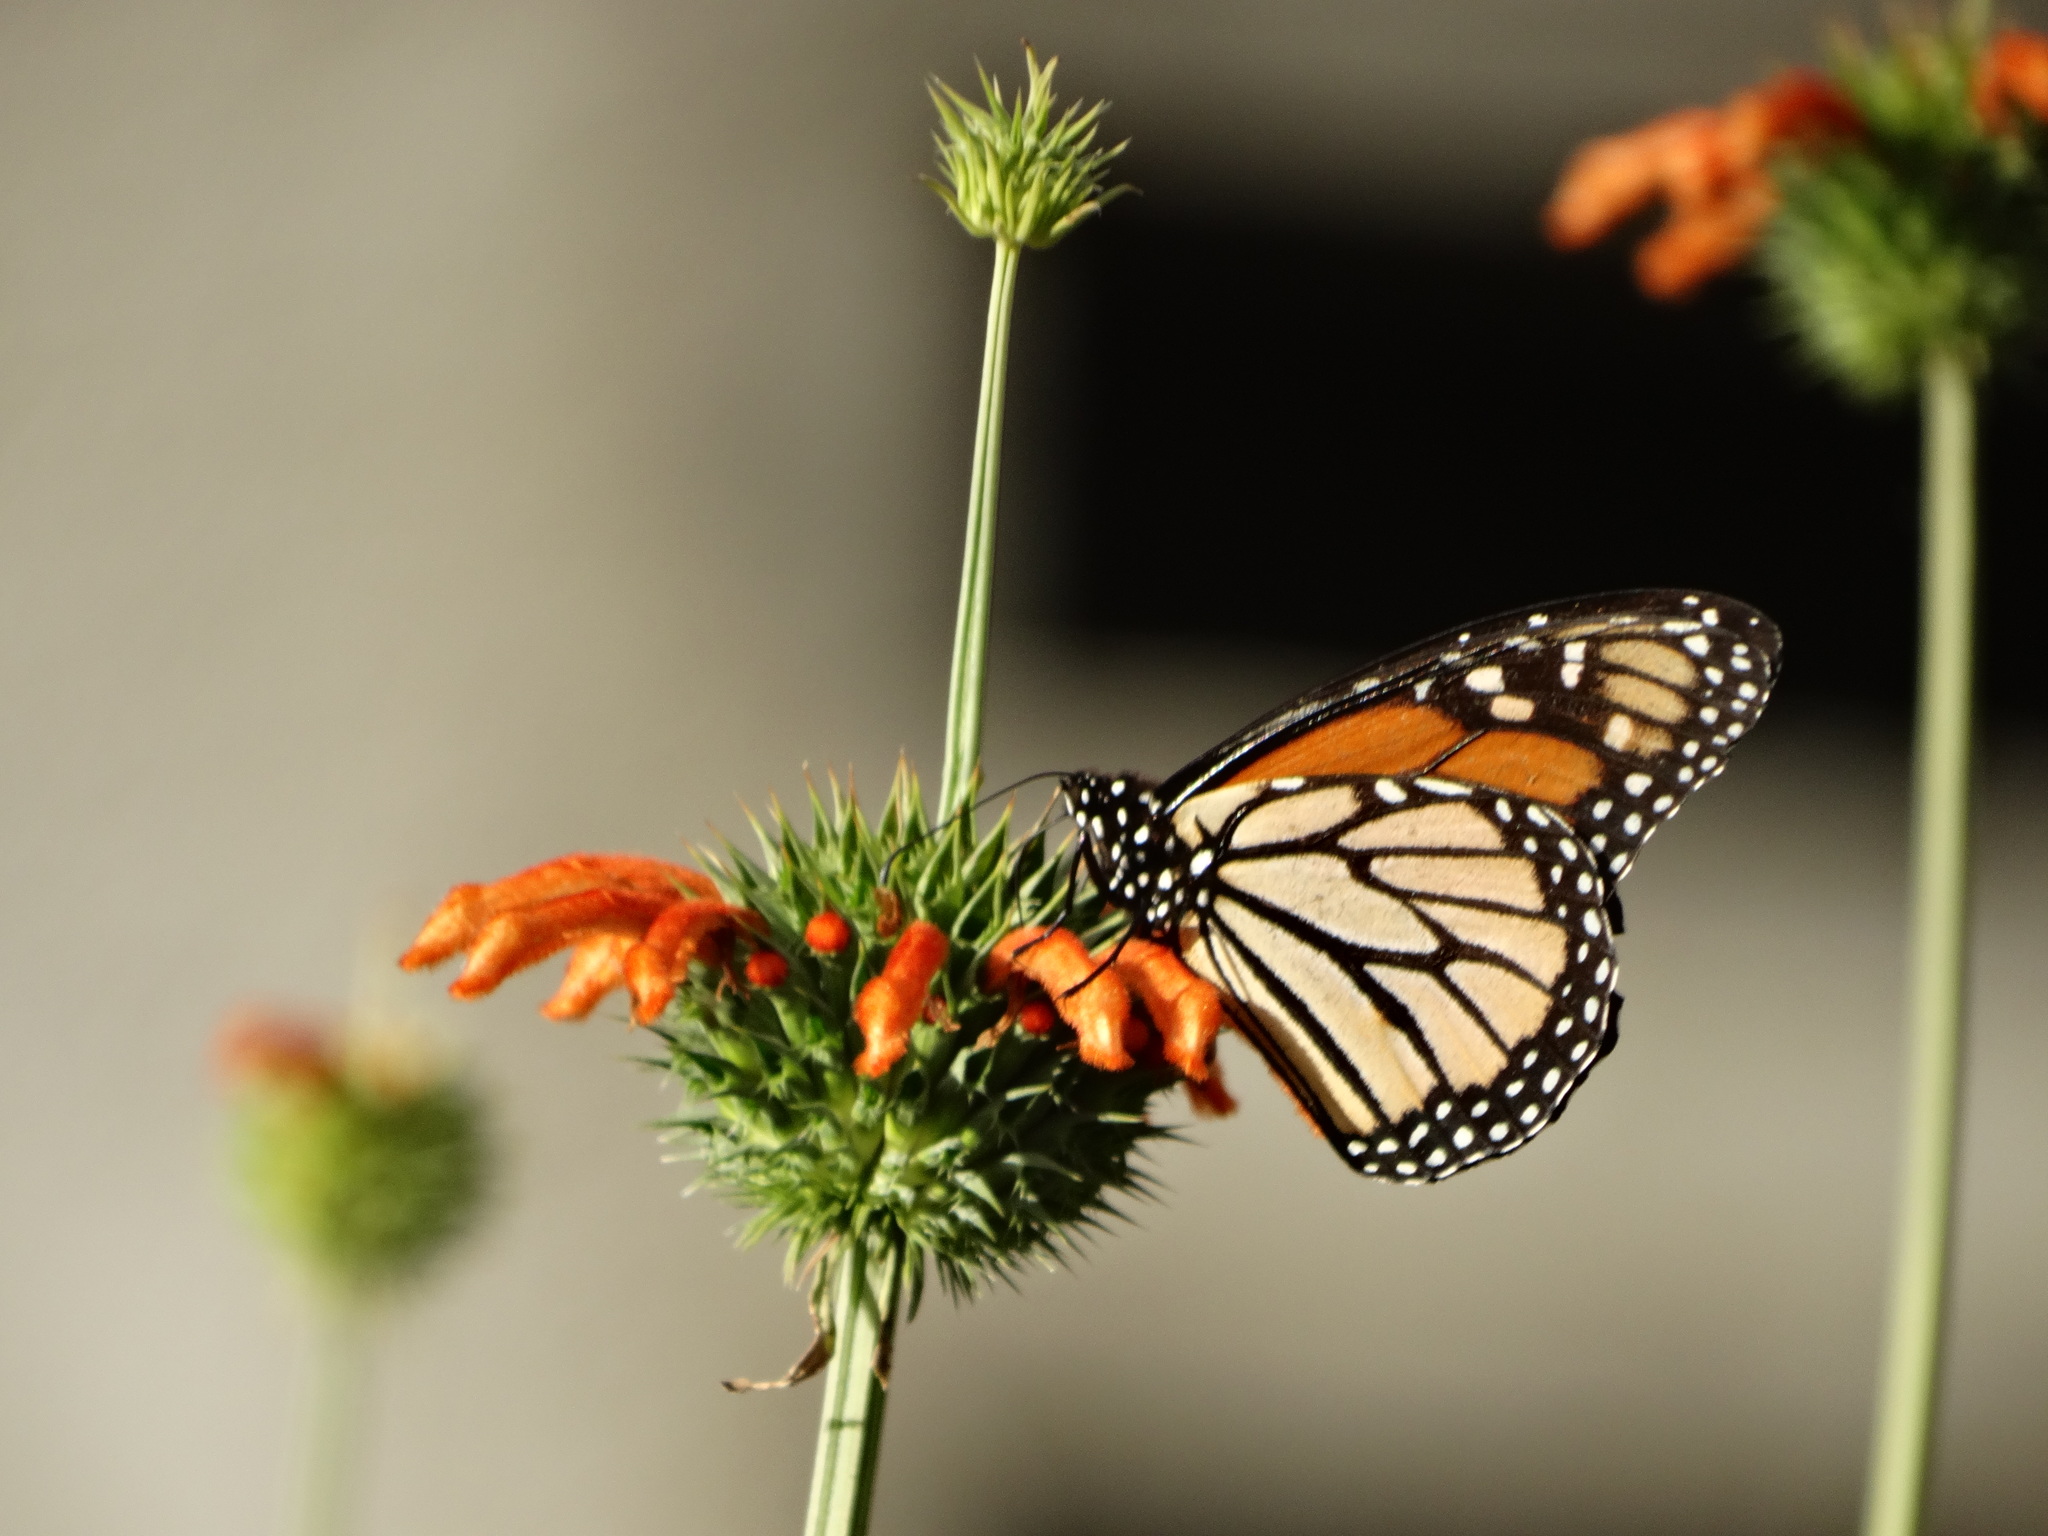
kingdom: Animalia
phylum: Arthropoda
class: Insecta
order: Lepidoptera
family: Nymphalidae
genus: Danaus
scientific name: Danaus plexippus
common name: Monarch
